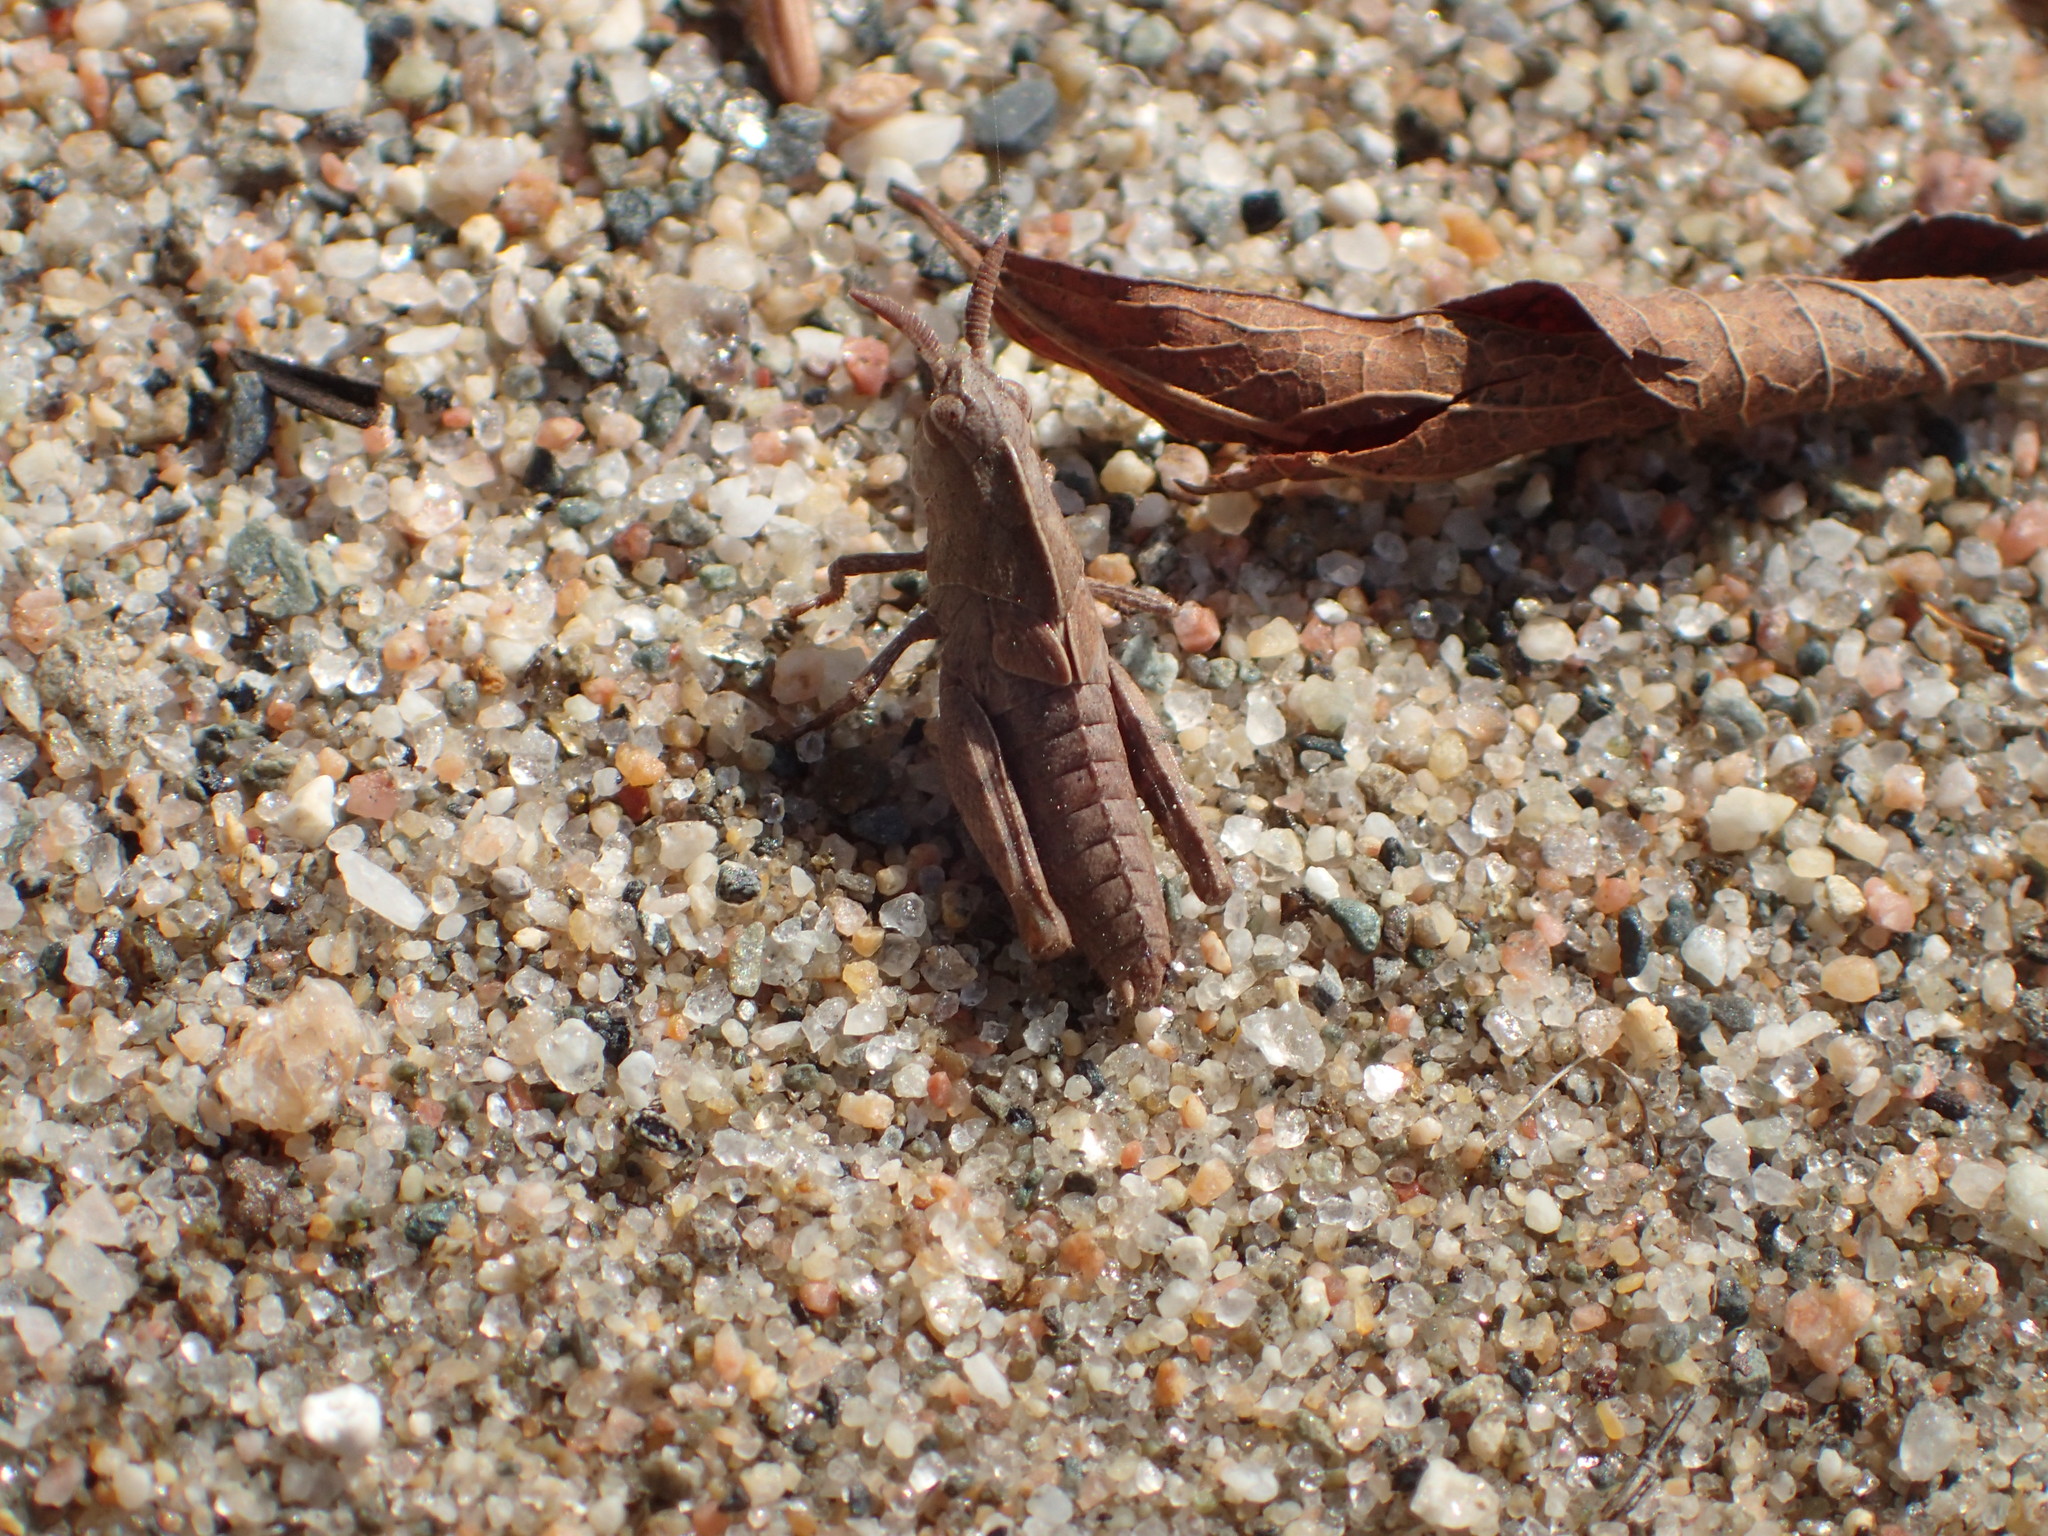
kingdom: Animalia
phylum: Arthropoda
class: Insecta
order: Orthoptera
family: Acrididae
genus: Chortophaga
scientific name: Chortophaga viridifasciata
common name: Green-striped grasshopper
